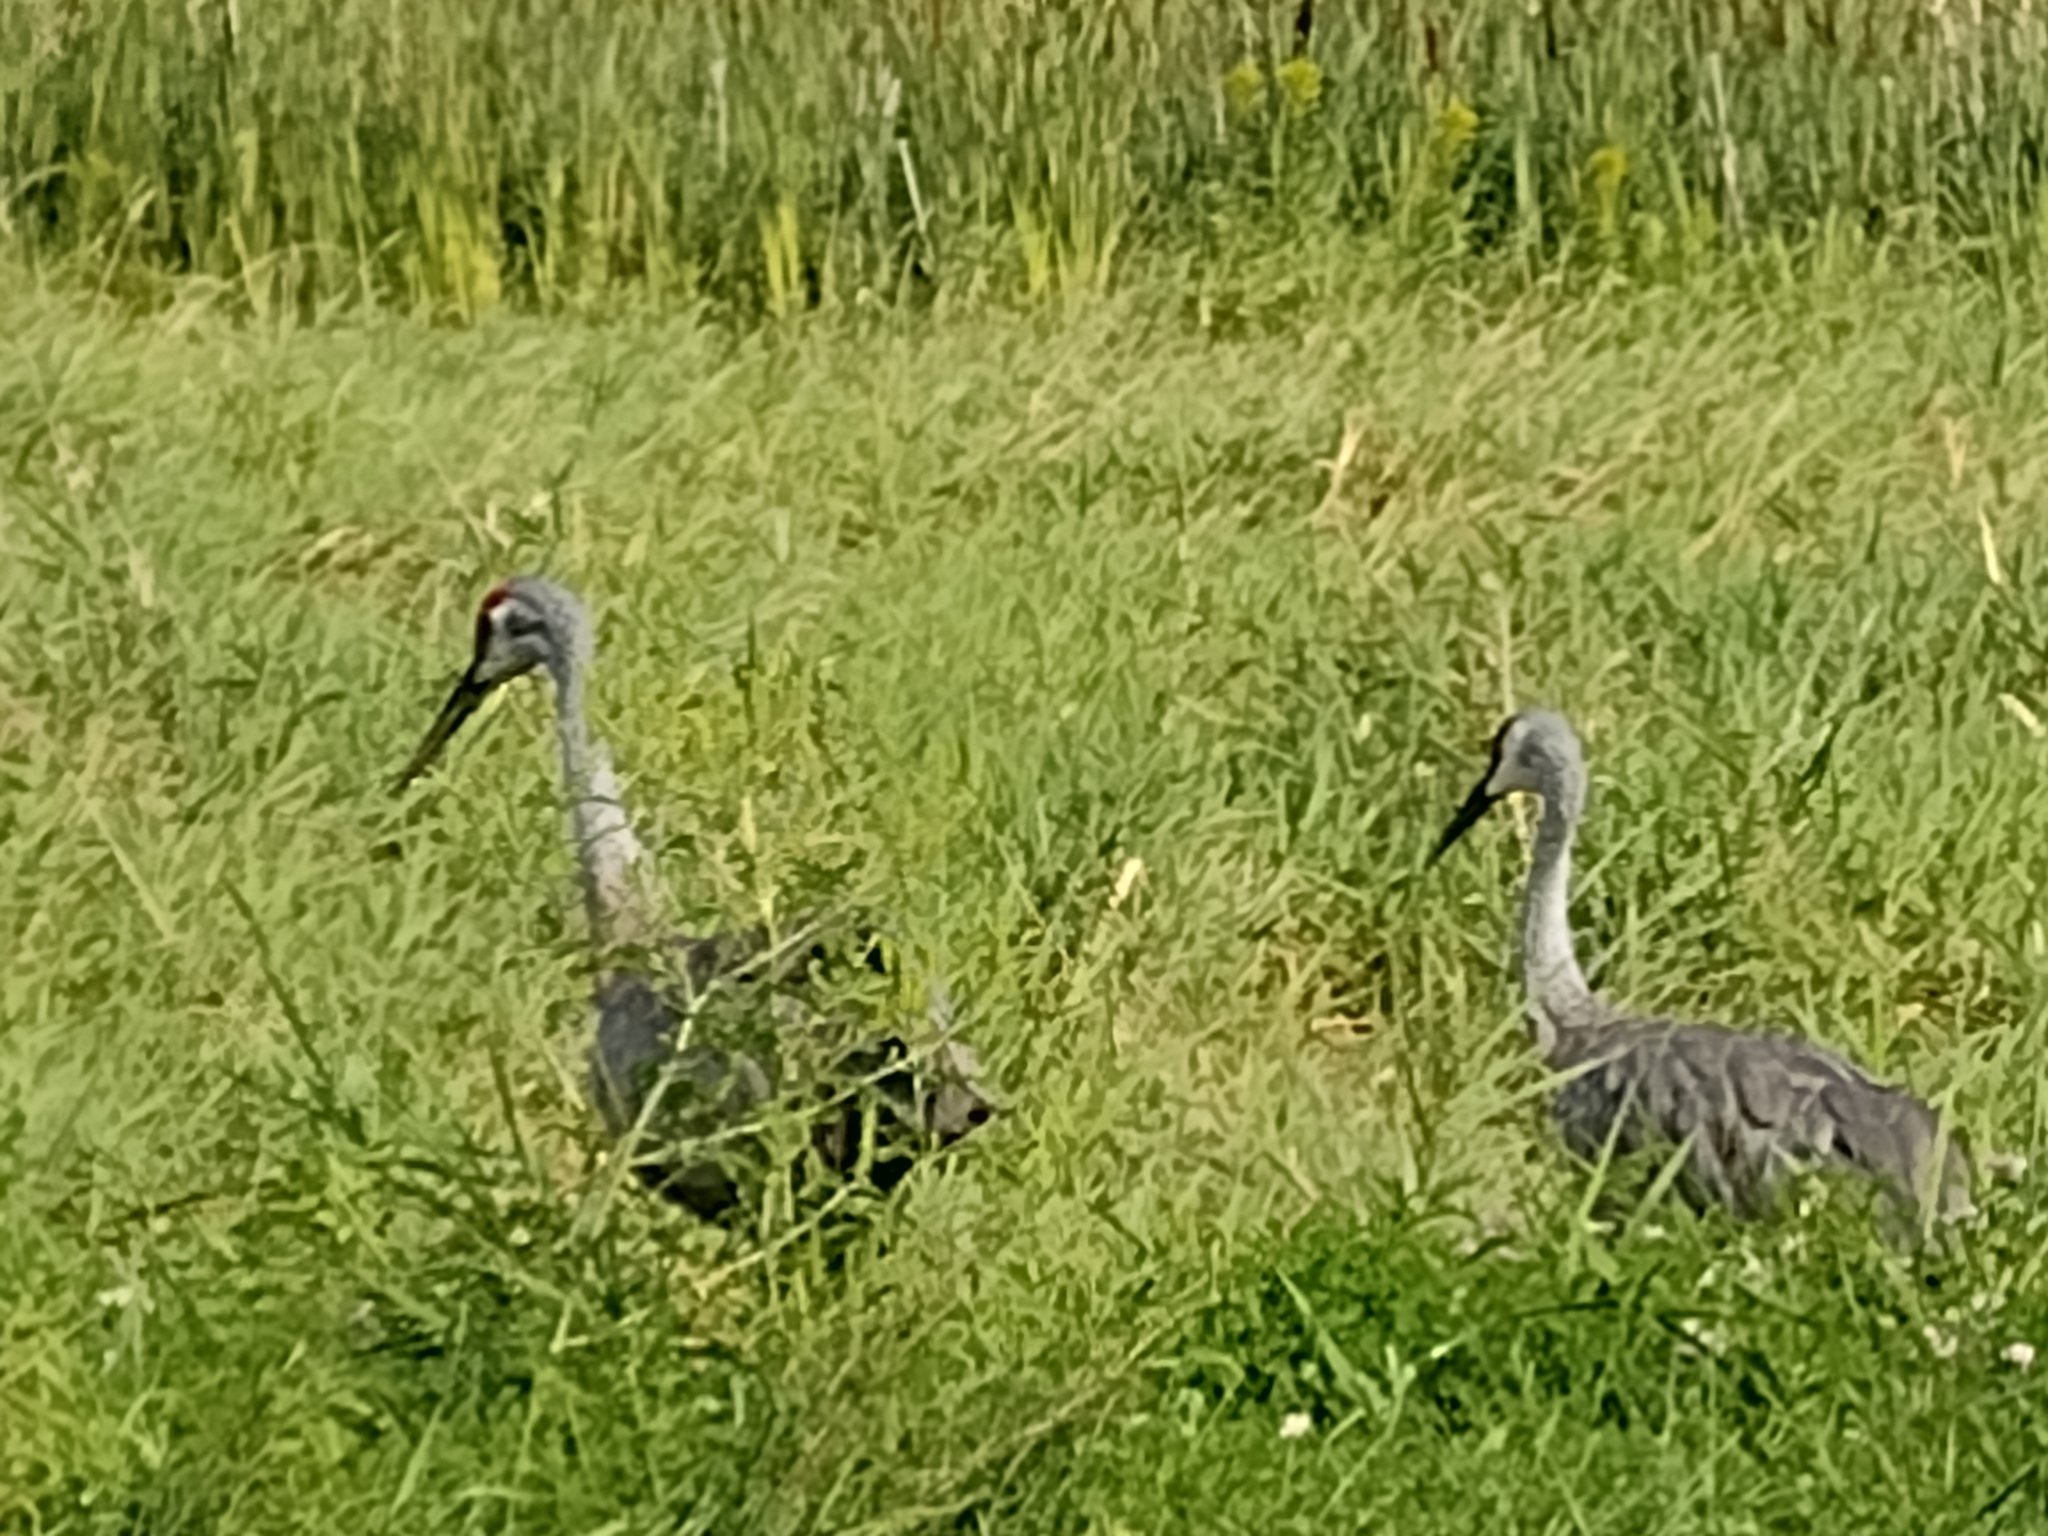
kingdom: Animalia
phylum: Chordata
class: Aves
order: Gruiformes
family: Gruidae
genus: Grus
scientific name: Grus canadensis
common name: Sandhill crane
